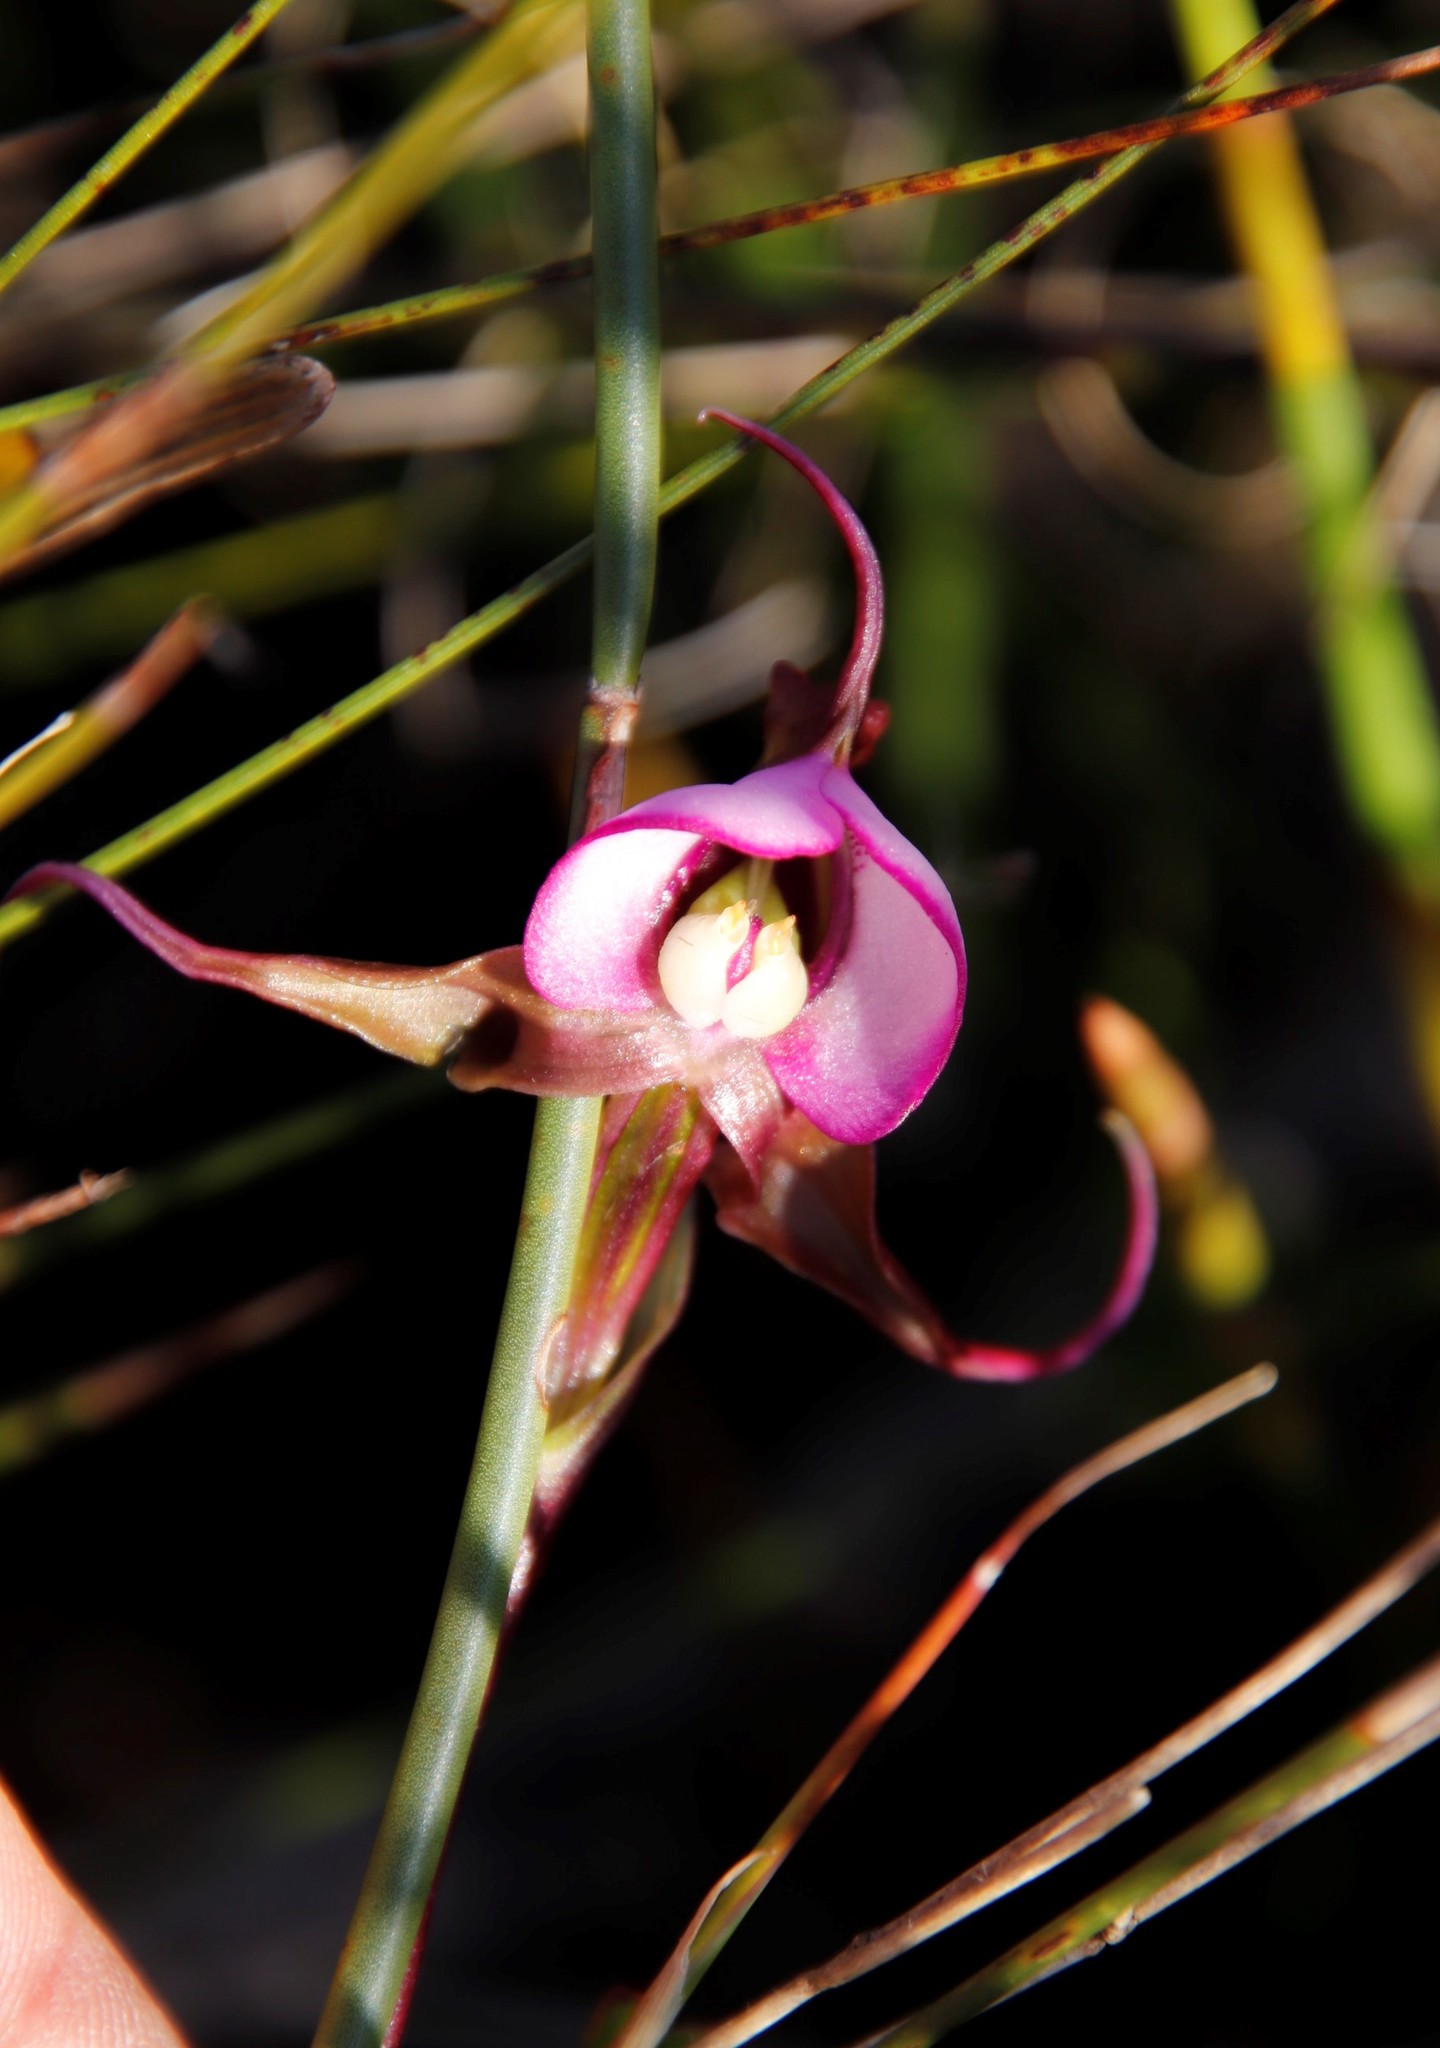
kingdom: Plantae
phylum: Tracheophyta
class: Liliopsida
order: Asparagales
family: Orchidaceae
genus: Disperis
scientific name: Disperis capensis
